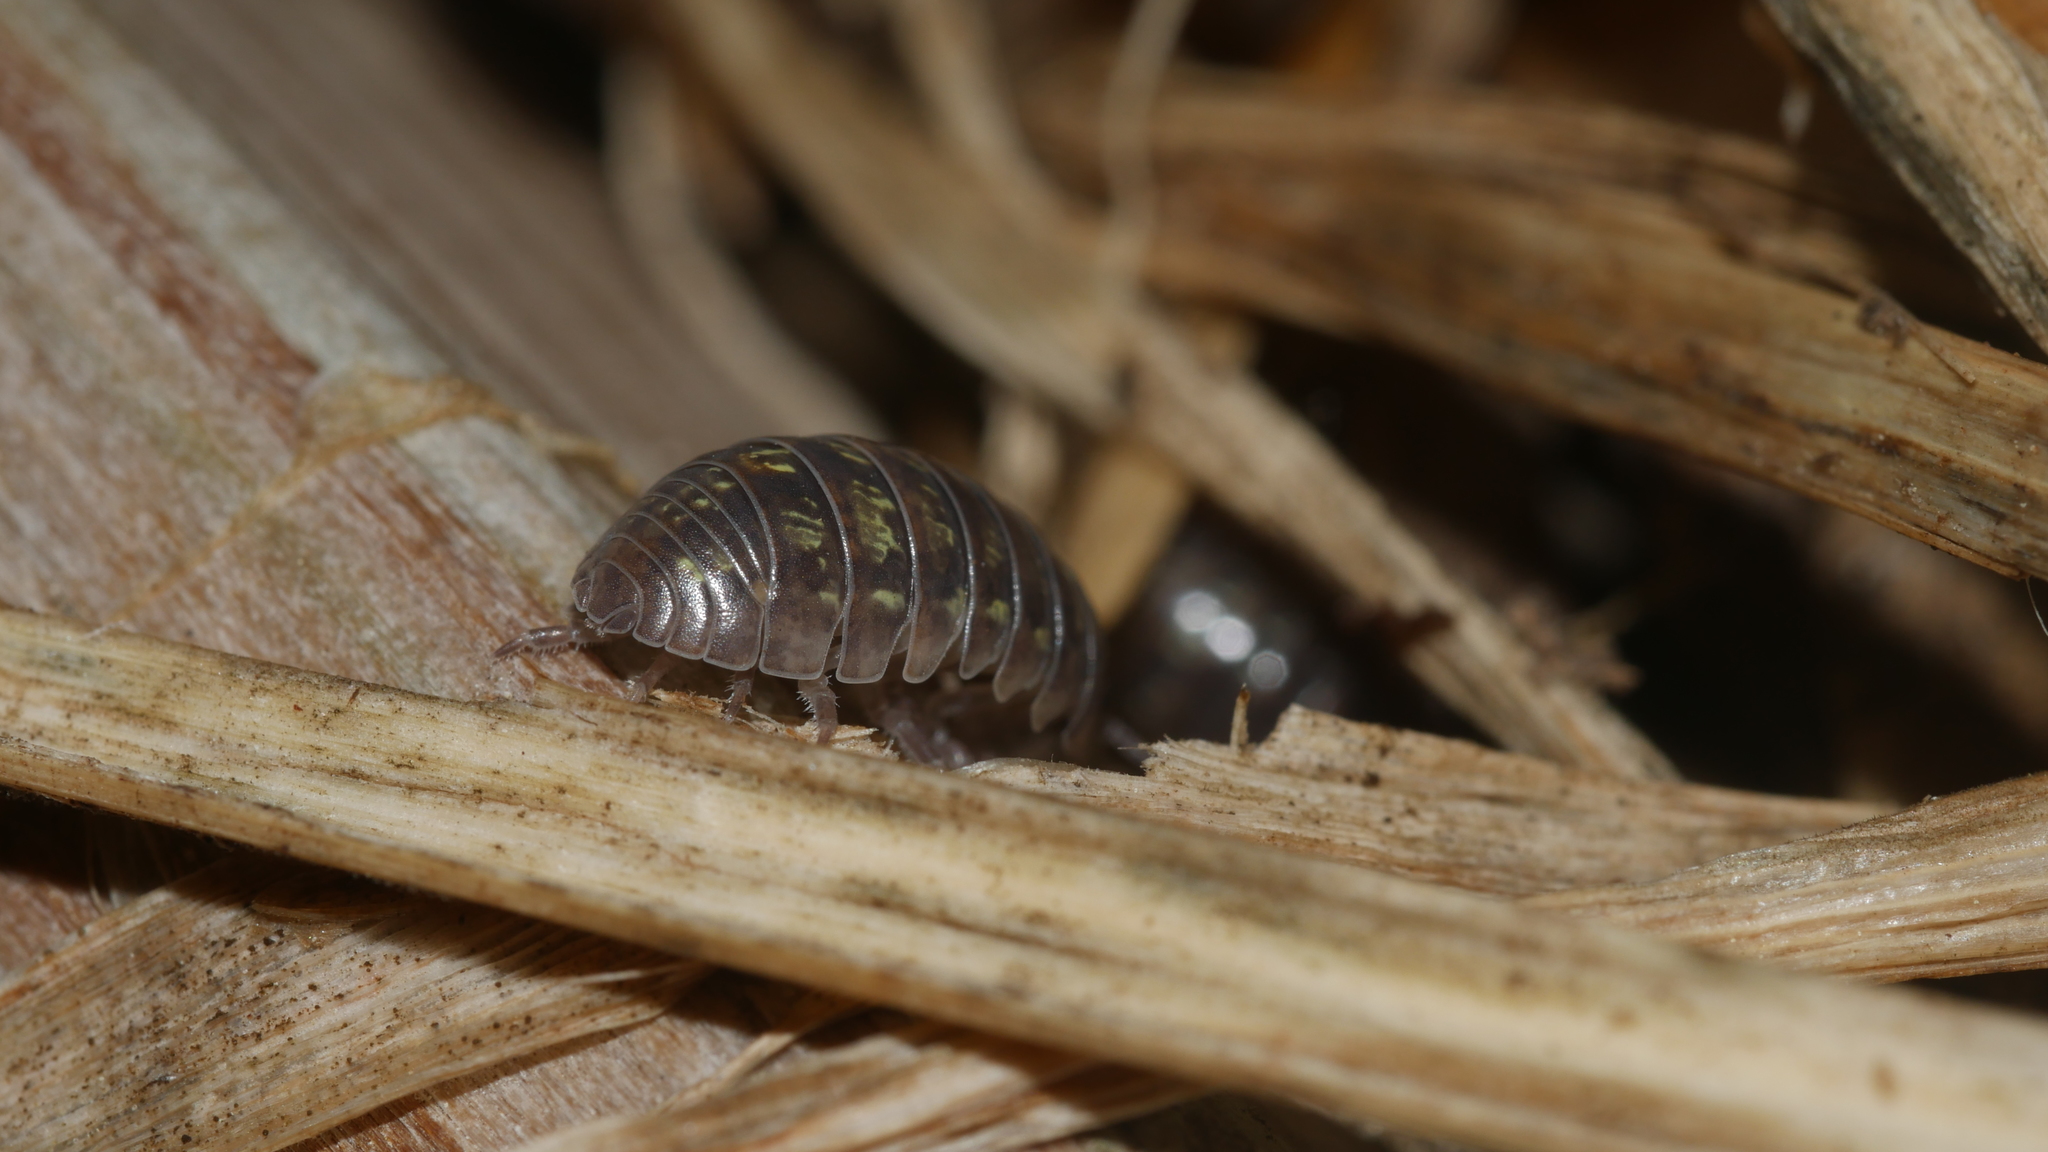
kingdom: Animalia
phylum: Arthropoda
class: Malacostraca
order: Isopoda
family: Armadillidiidae
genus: Armadillidium
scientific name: Armadillidium vulgare
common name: Common pill woodlouse
